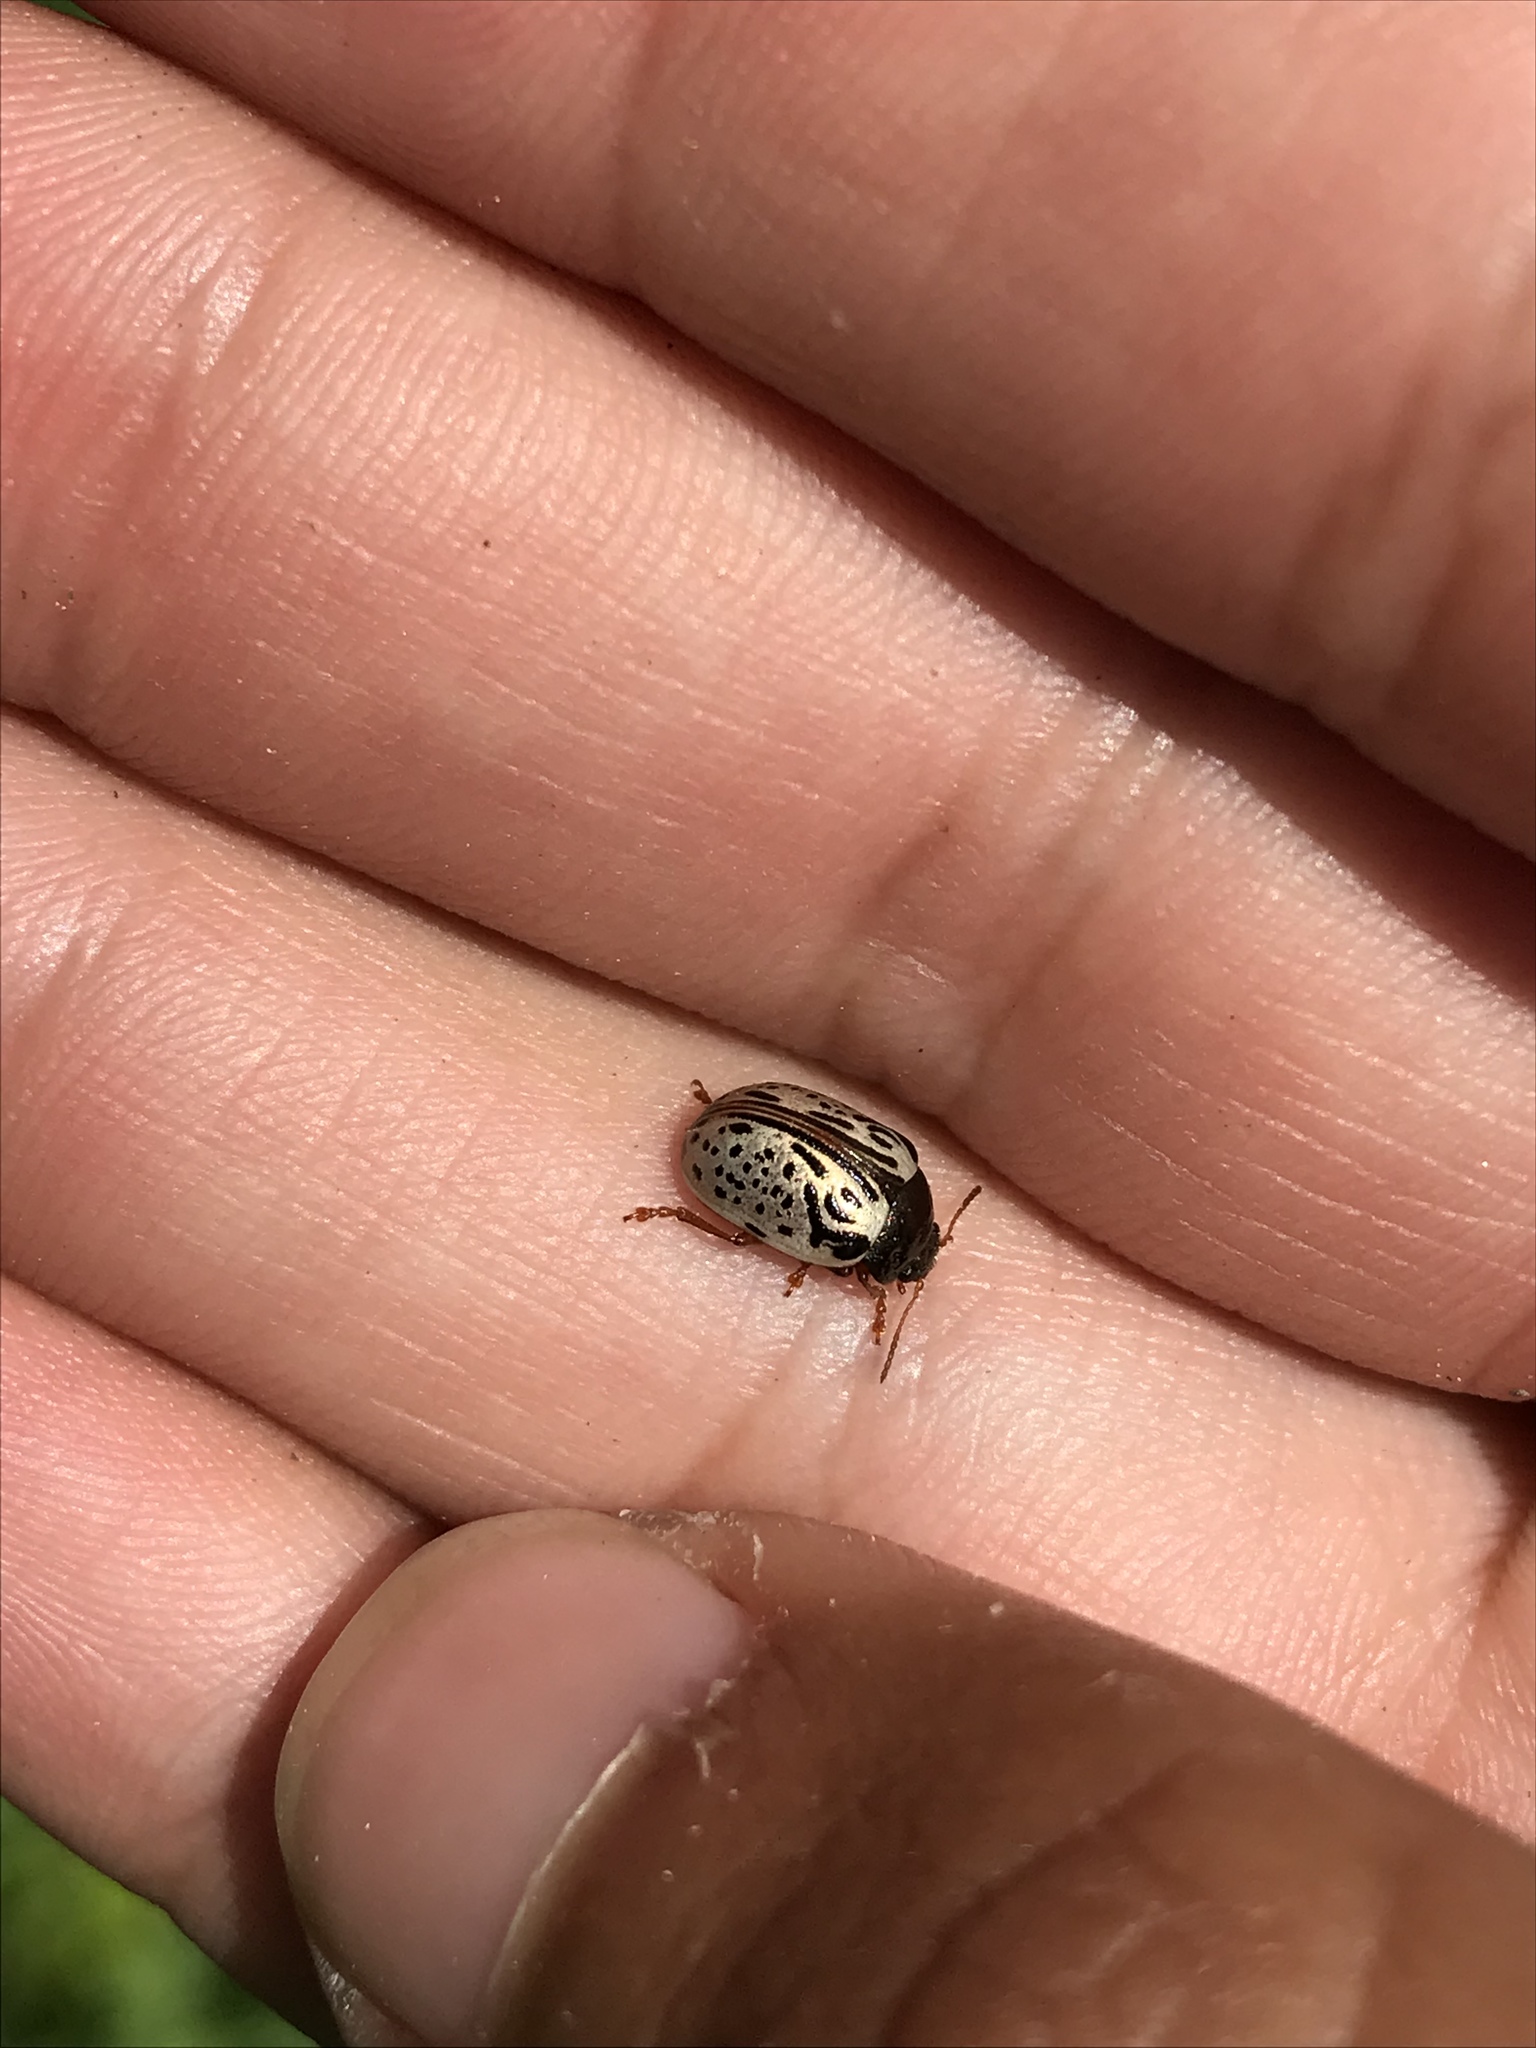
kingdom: Animalia
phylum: Arthropoda
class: Insecta
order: Coleoptera
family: Chrysomelidae
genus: Calligrapha
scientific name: Calligrapha philadelphica
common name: Dogwood leaf beetle
